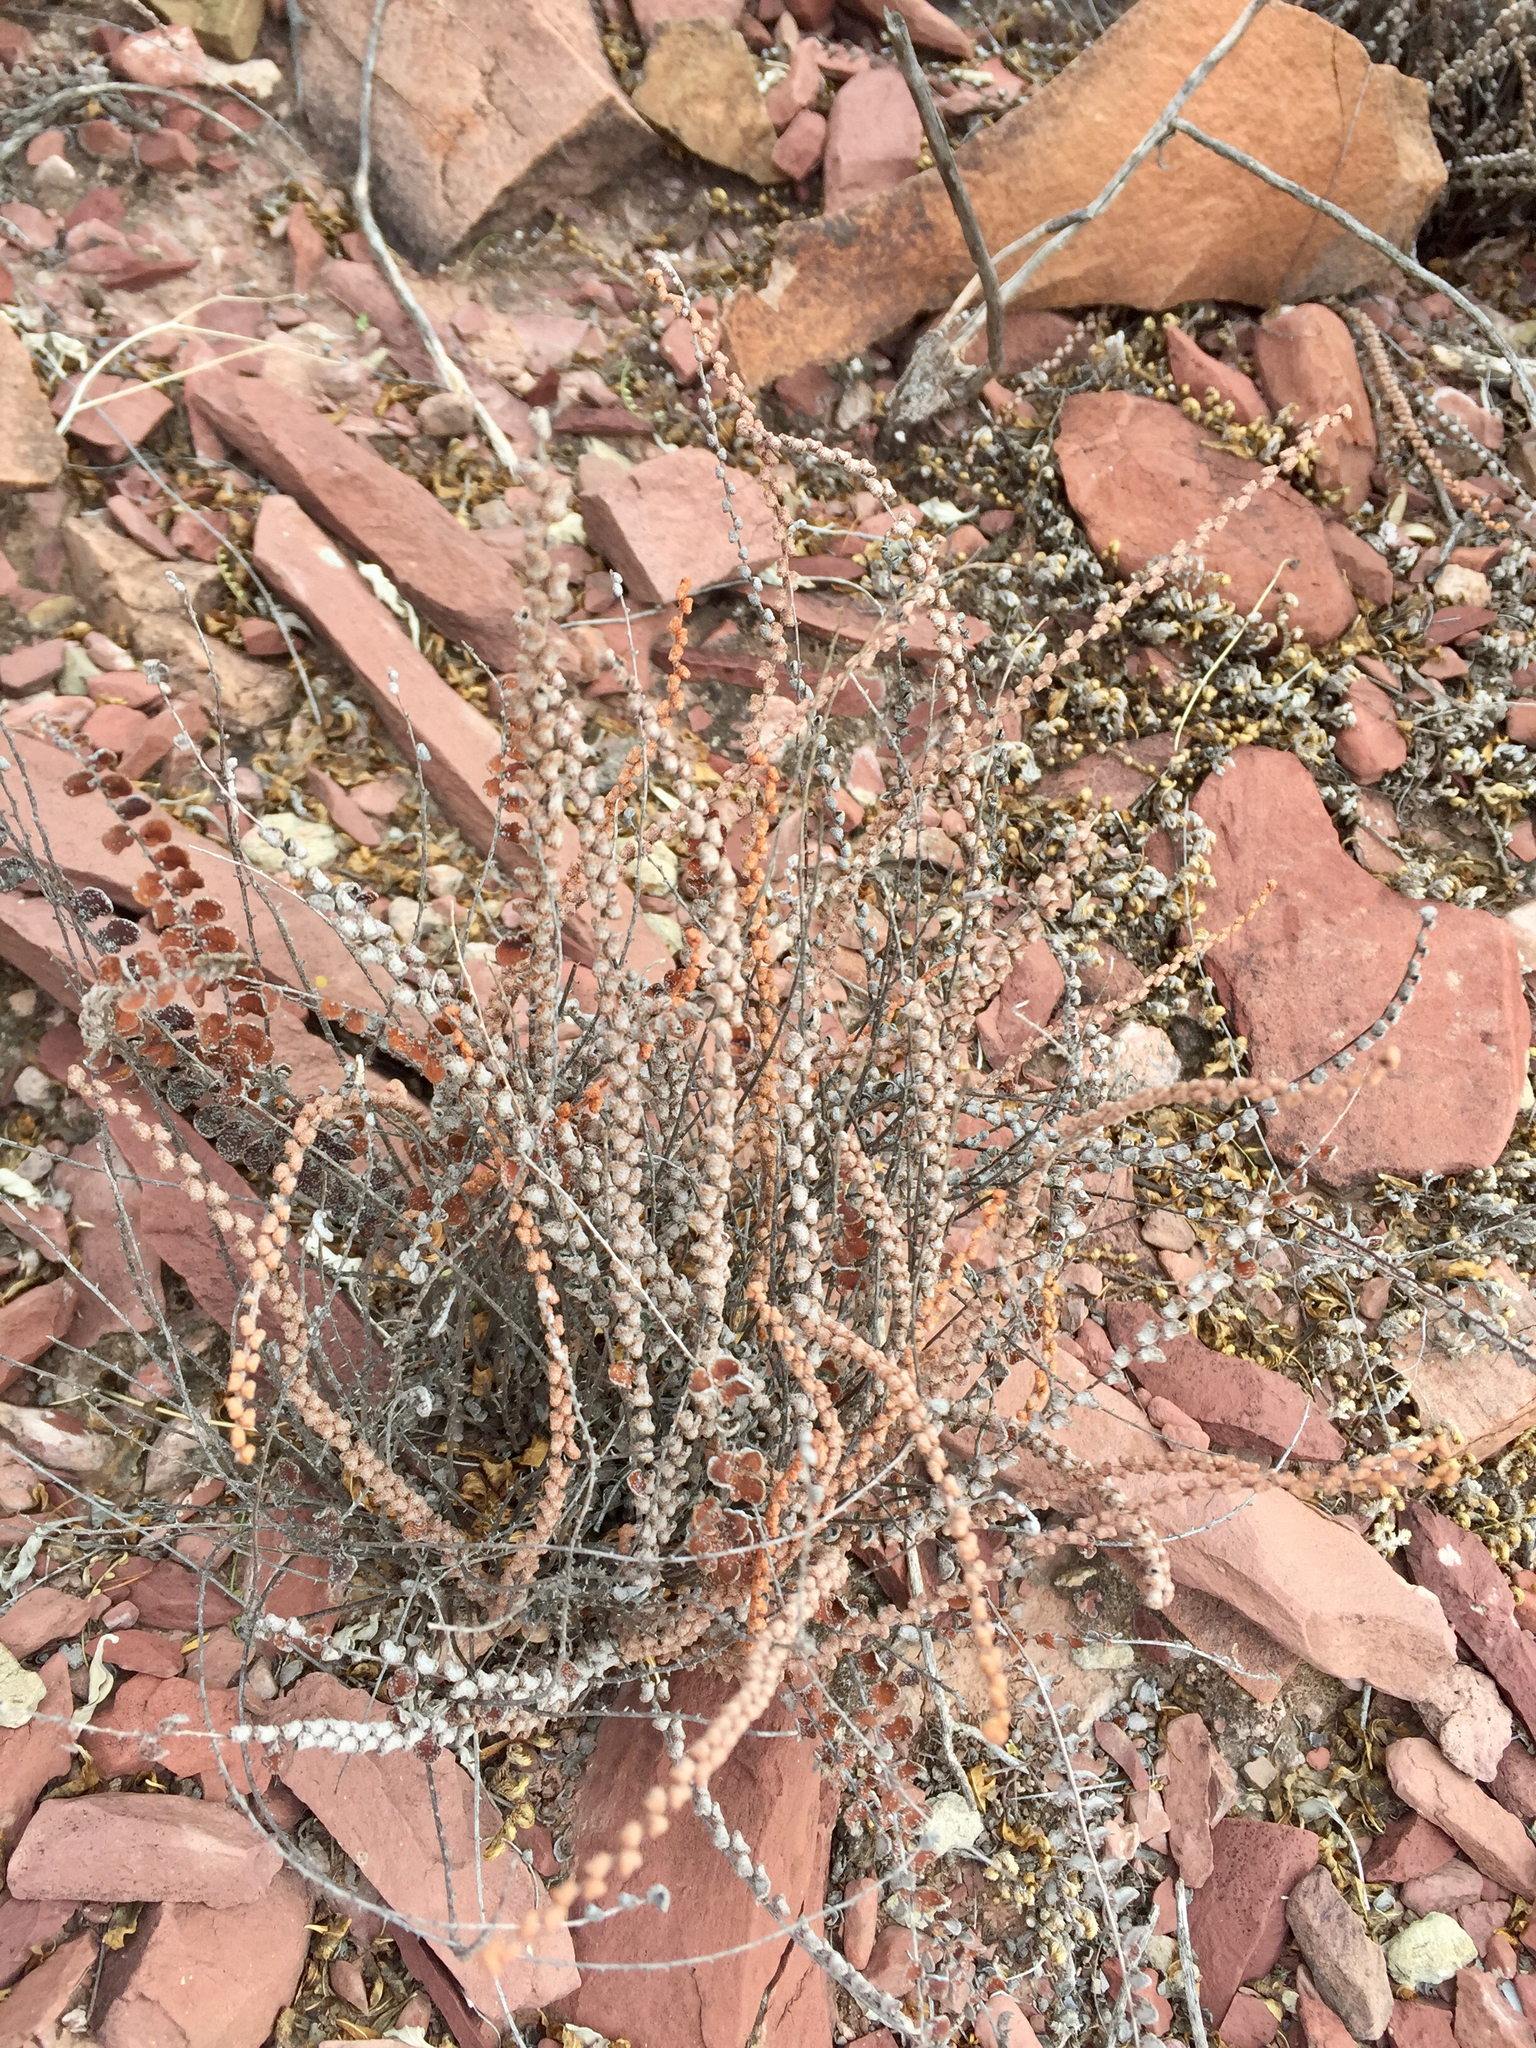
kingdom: Plantae
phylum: Tracheophyta
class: Polypodiopsida
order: Polypodiales
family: Pteridaceae
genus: Astrolepis
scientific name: Astrolepis cochisensis
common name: Scaly cloak fern
